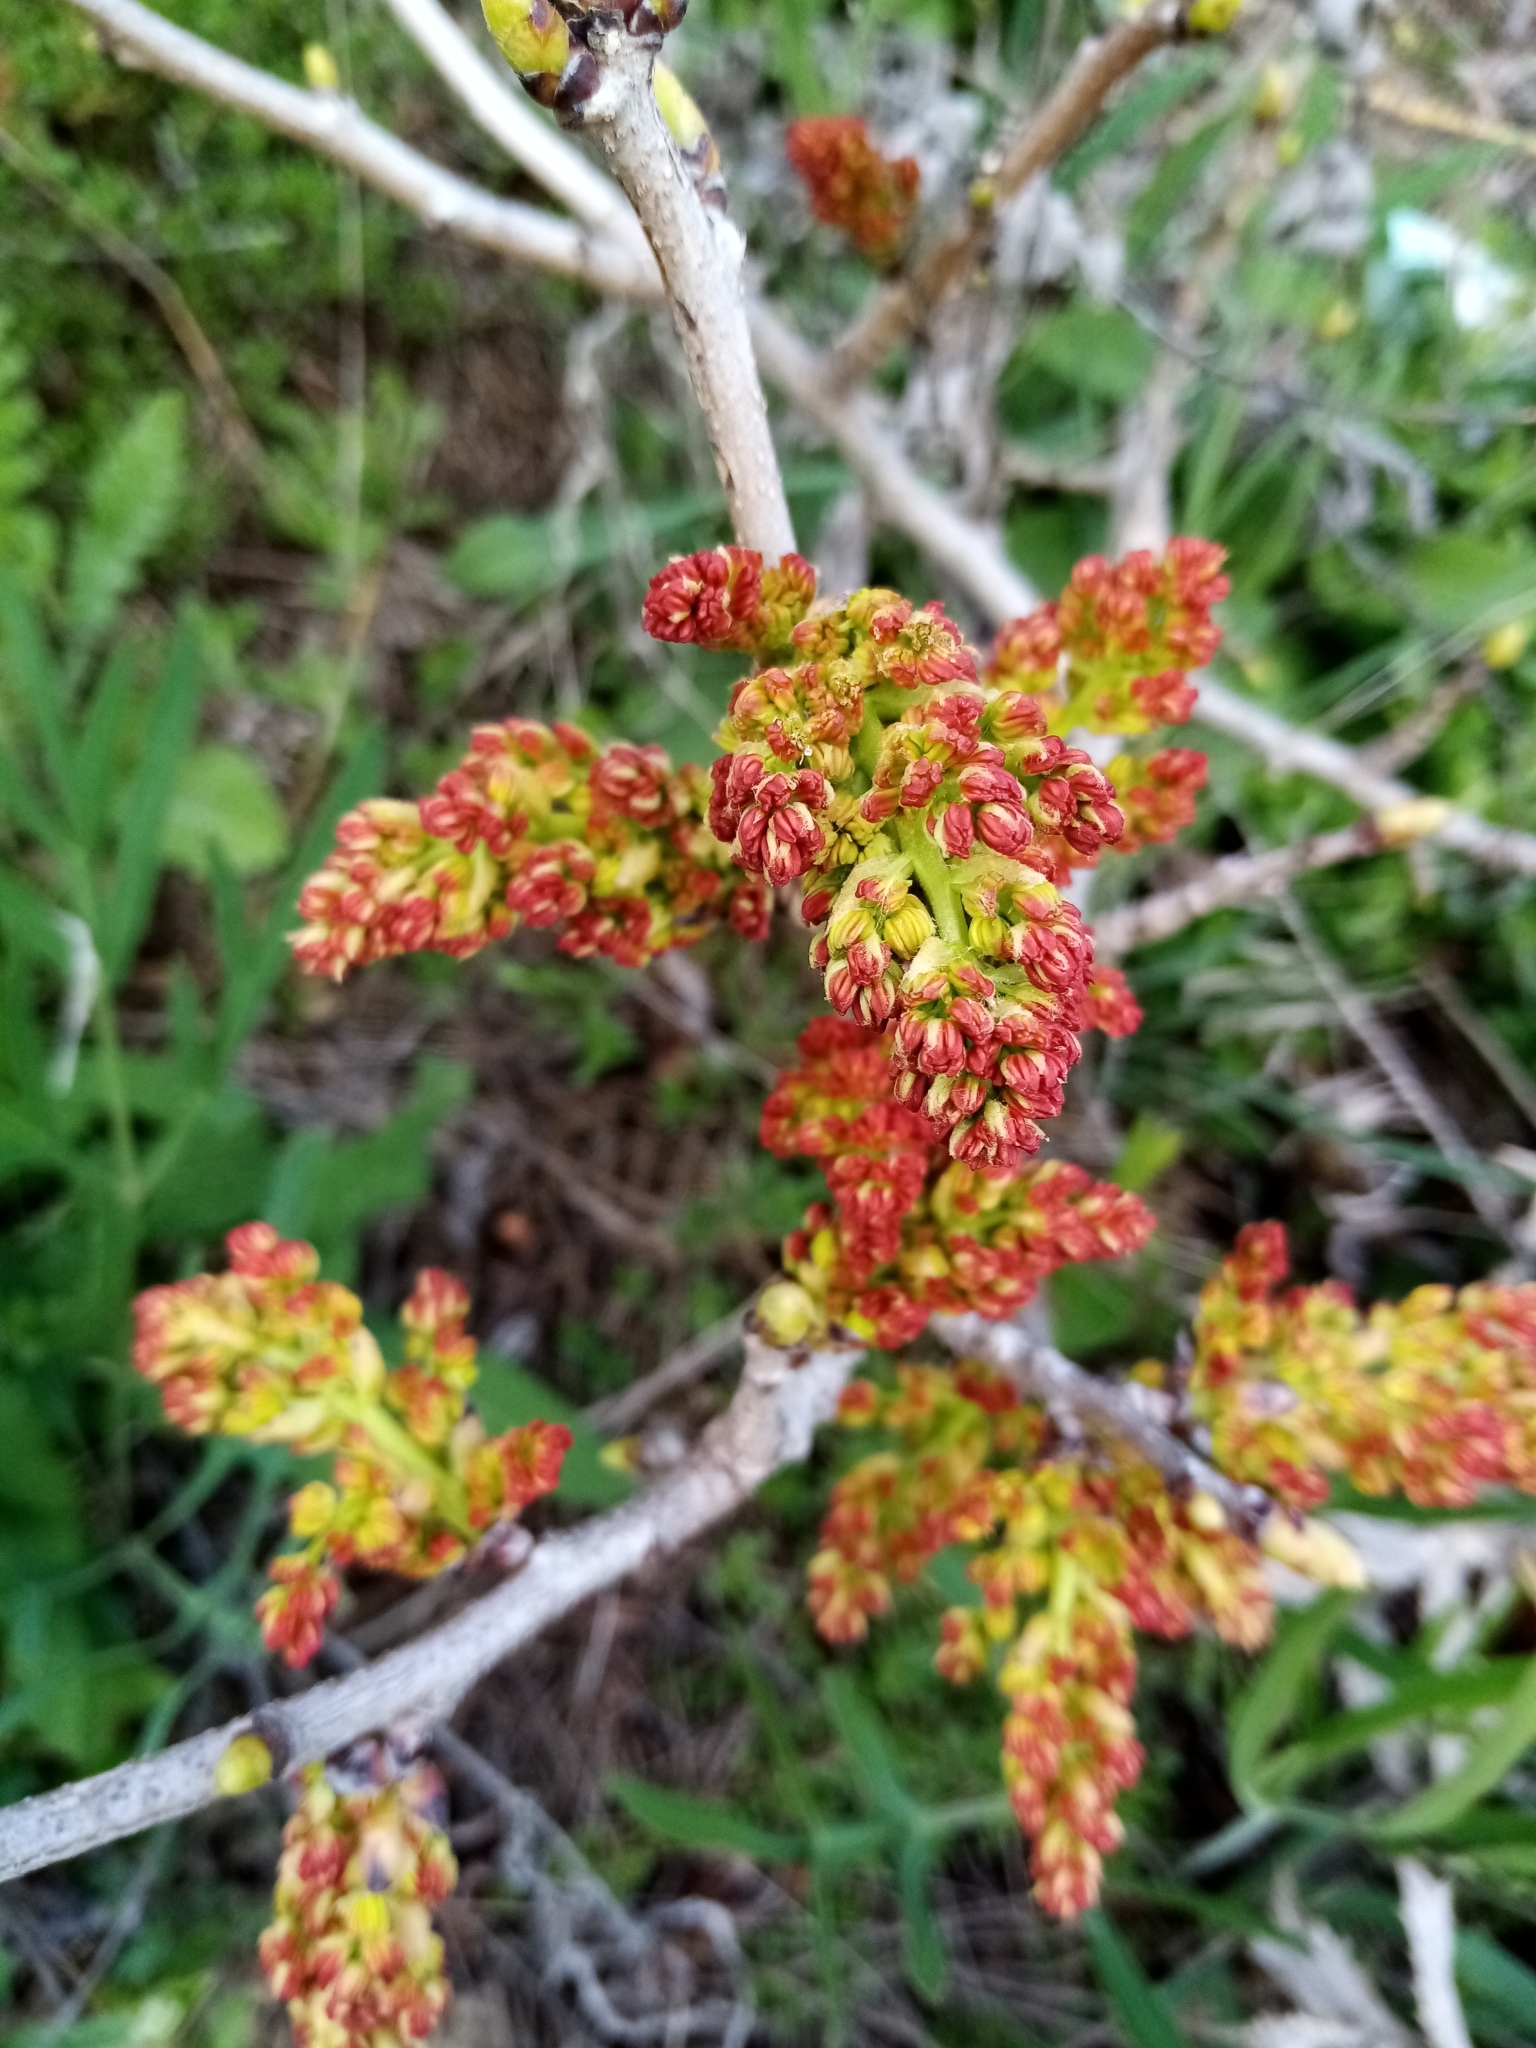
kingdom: Plantae
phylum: Tracheophyta
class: Magnoliopsida
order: Sapindales
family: Anacardiaceae
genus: Pistacia
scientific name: Pistacia atlantica
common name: Mt. atlas mastic tree
